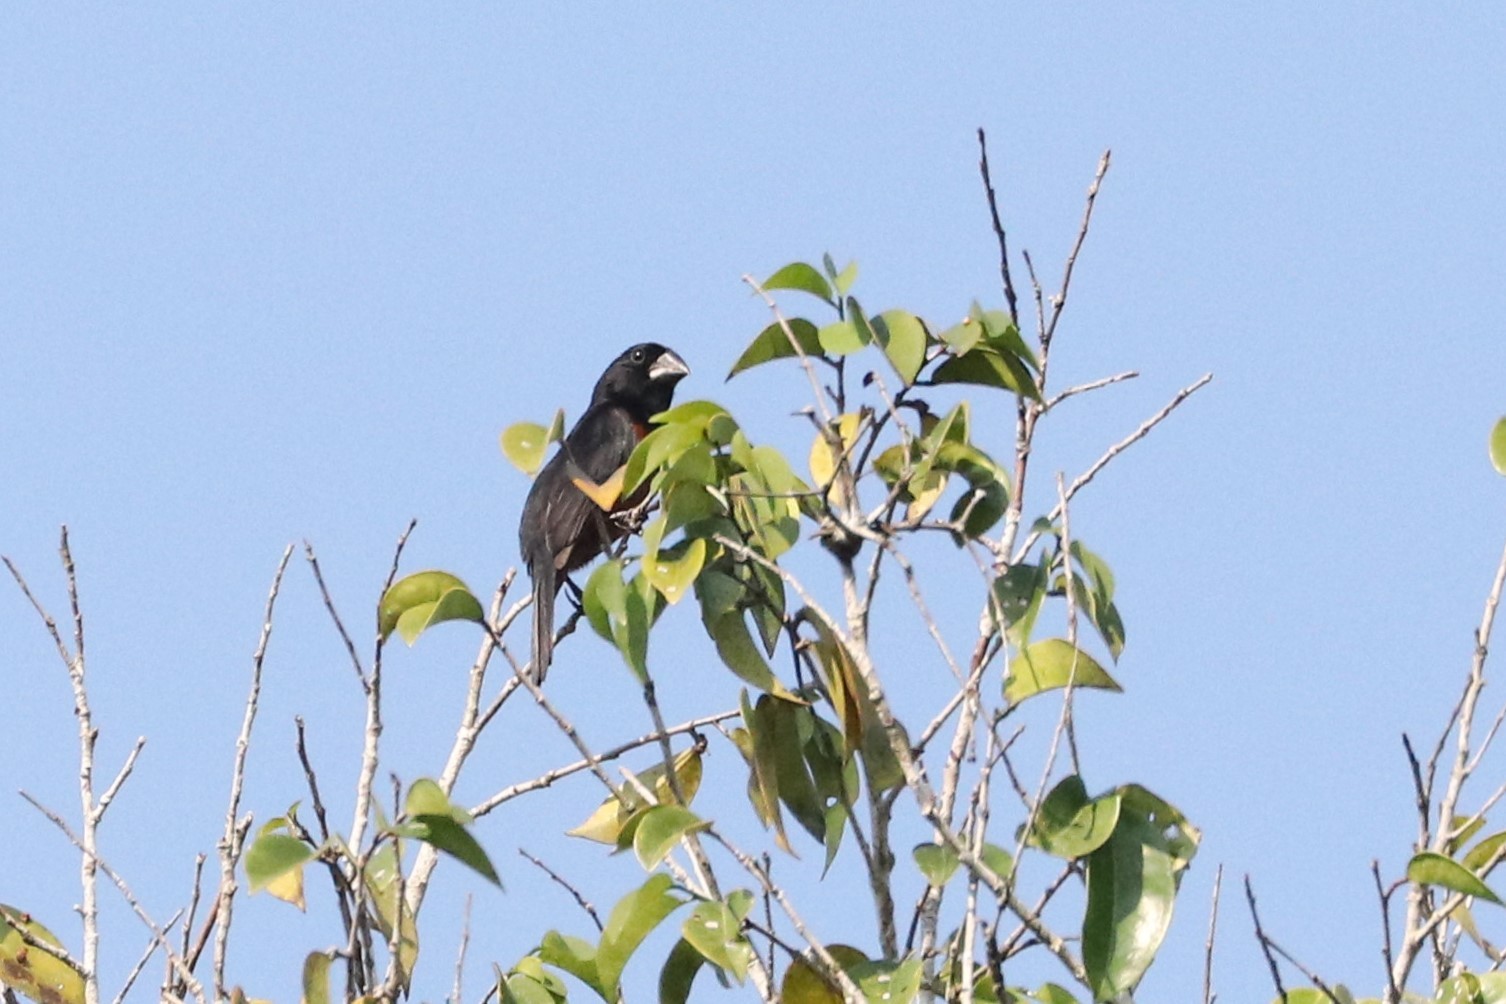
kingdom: Animalia
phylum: Chordata
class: Aves
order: Passeriformes
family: Thraupidae
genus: Sporophila
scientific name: Sporophila angolensis
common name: Chestnut-bellied seed-finch
